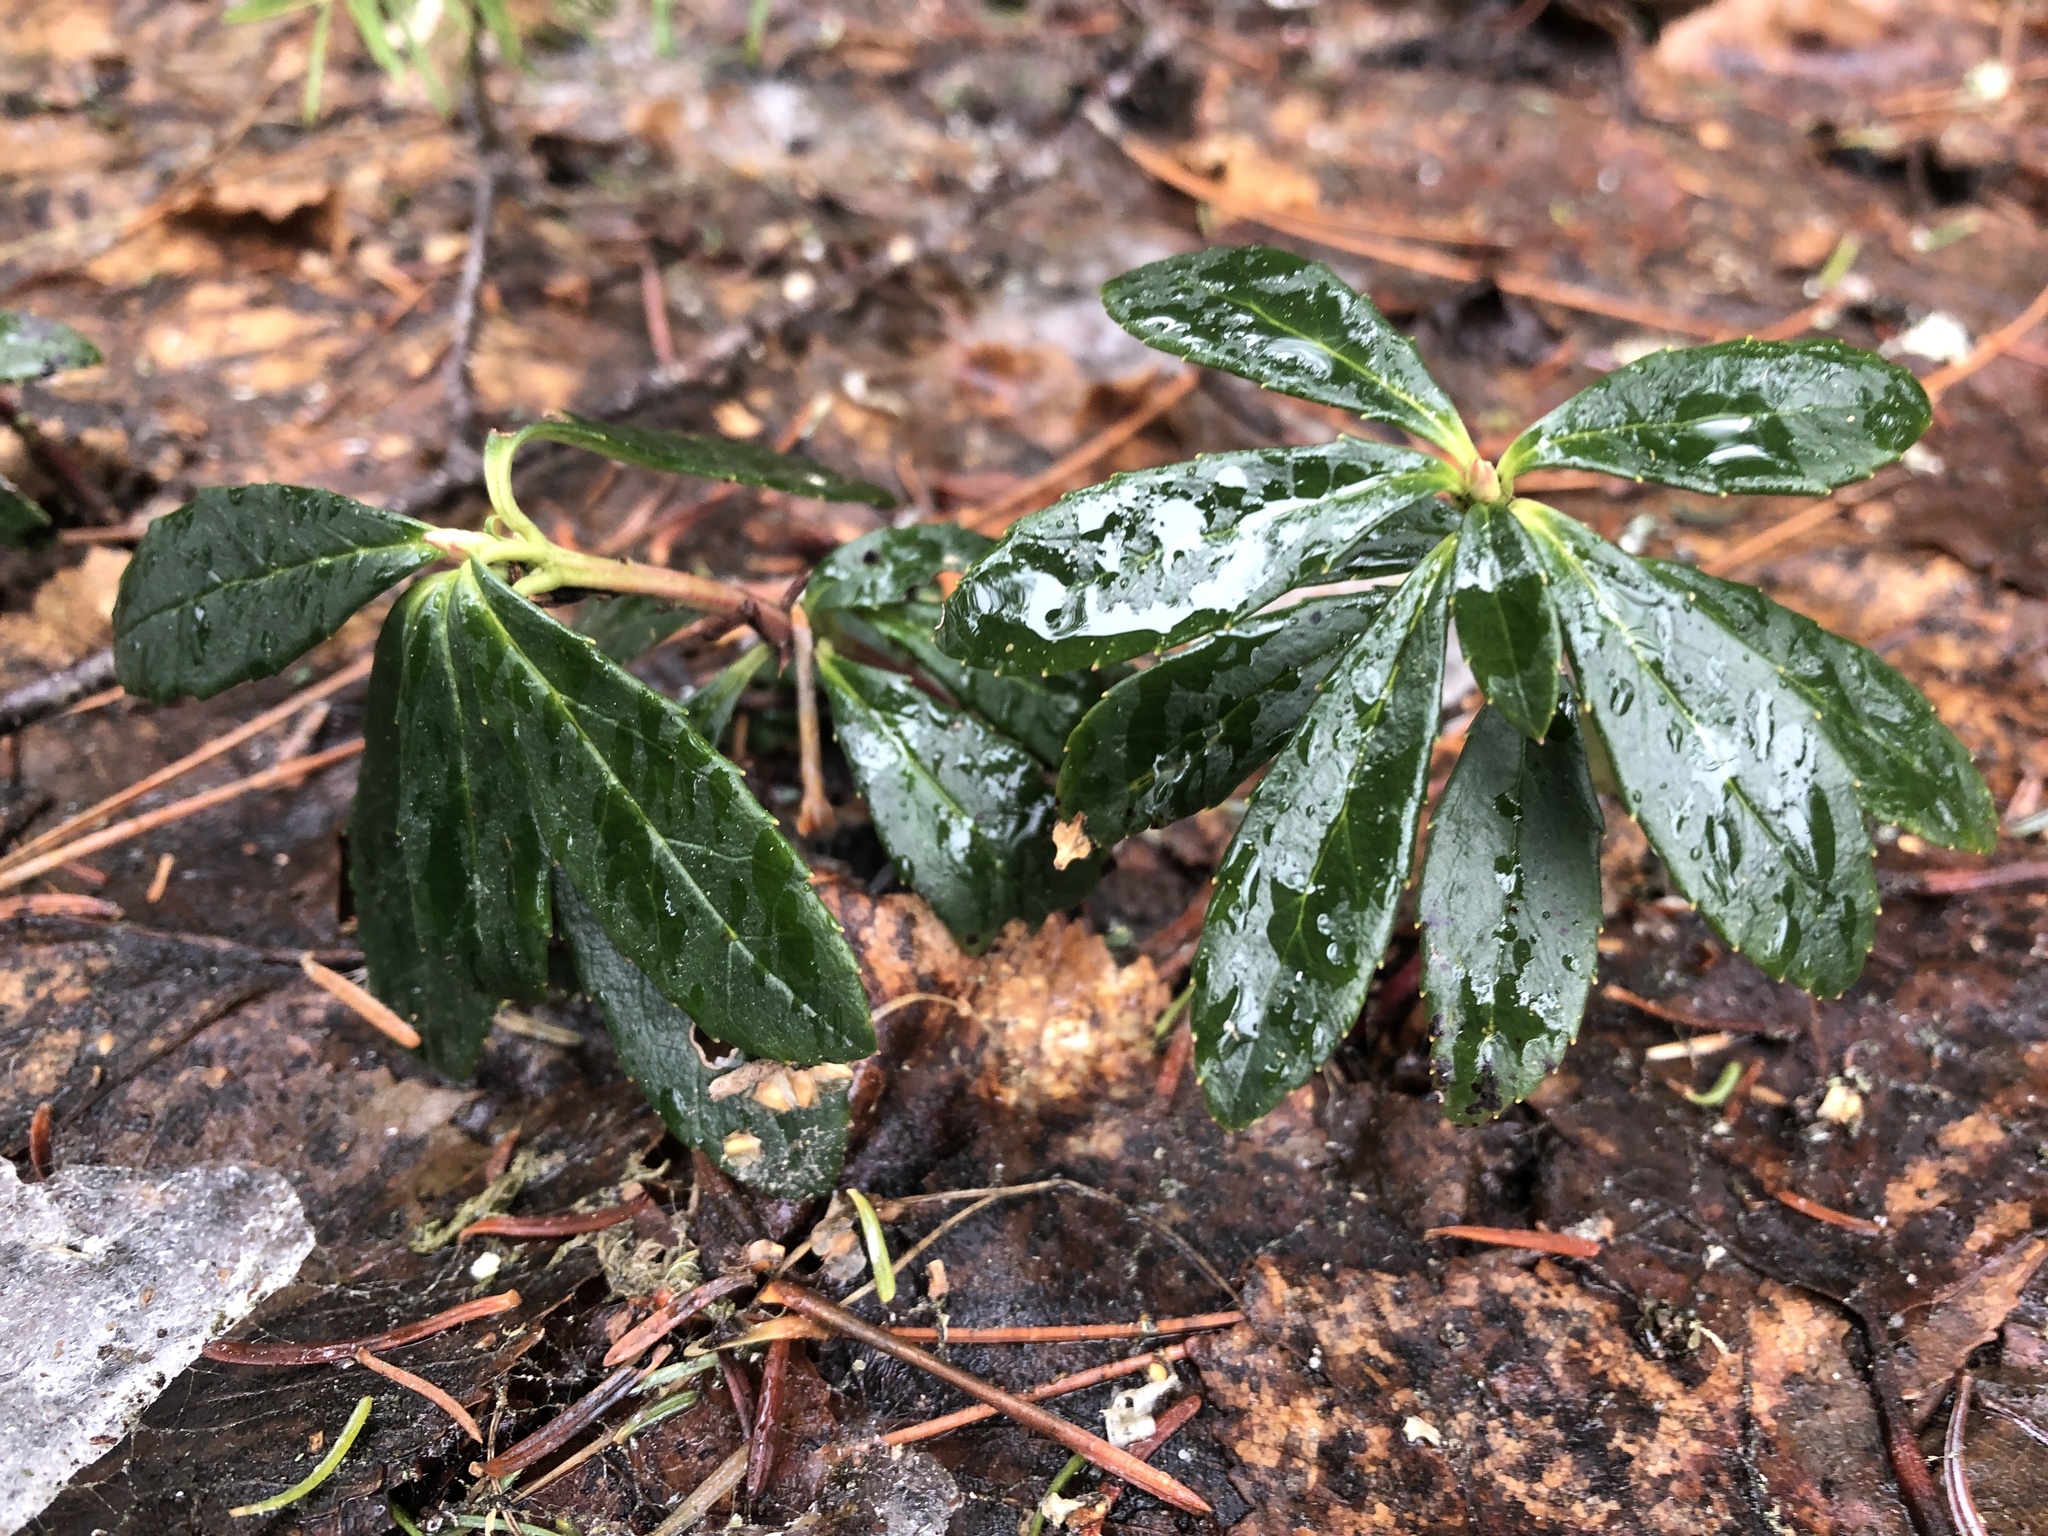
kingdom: Plantae
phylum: Tracheophyta
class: Magnoliopsida
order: Ericales
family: Ericaceae
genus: Chimaphila
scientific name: Chimaphila umbellata
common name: Pipsissewa
